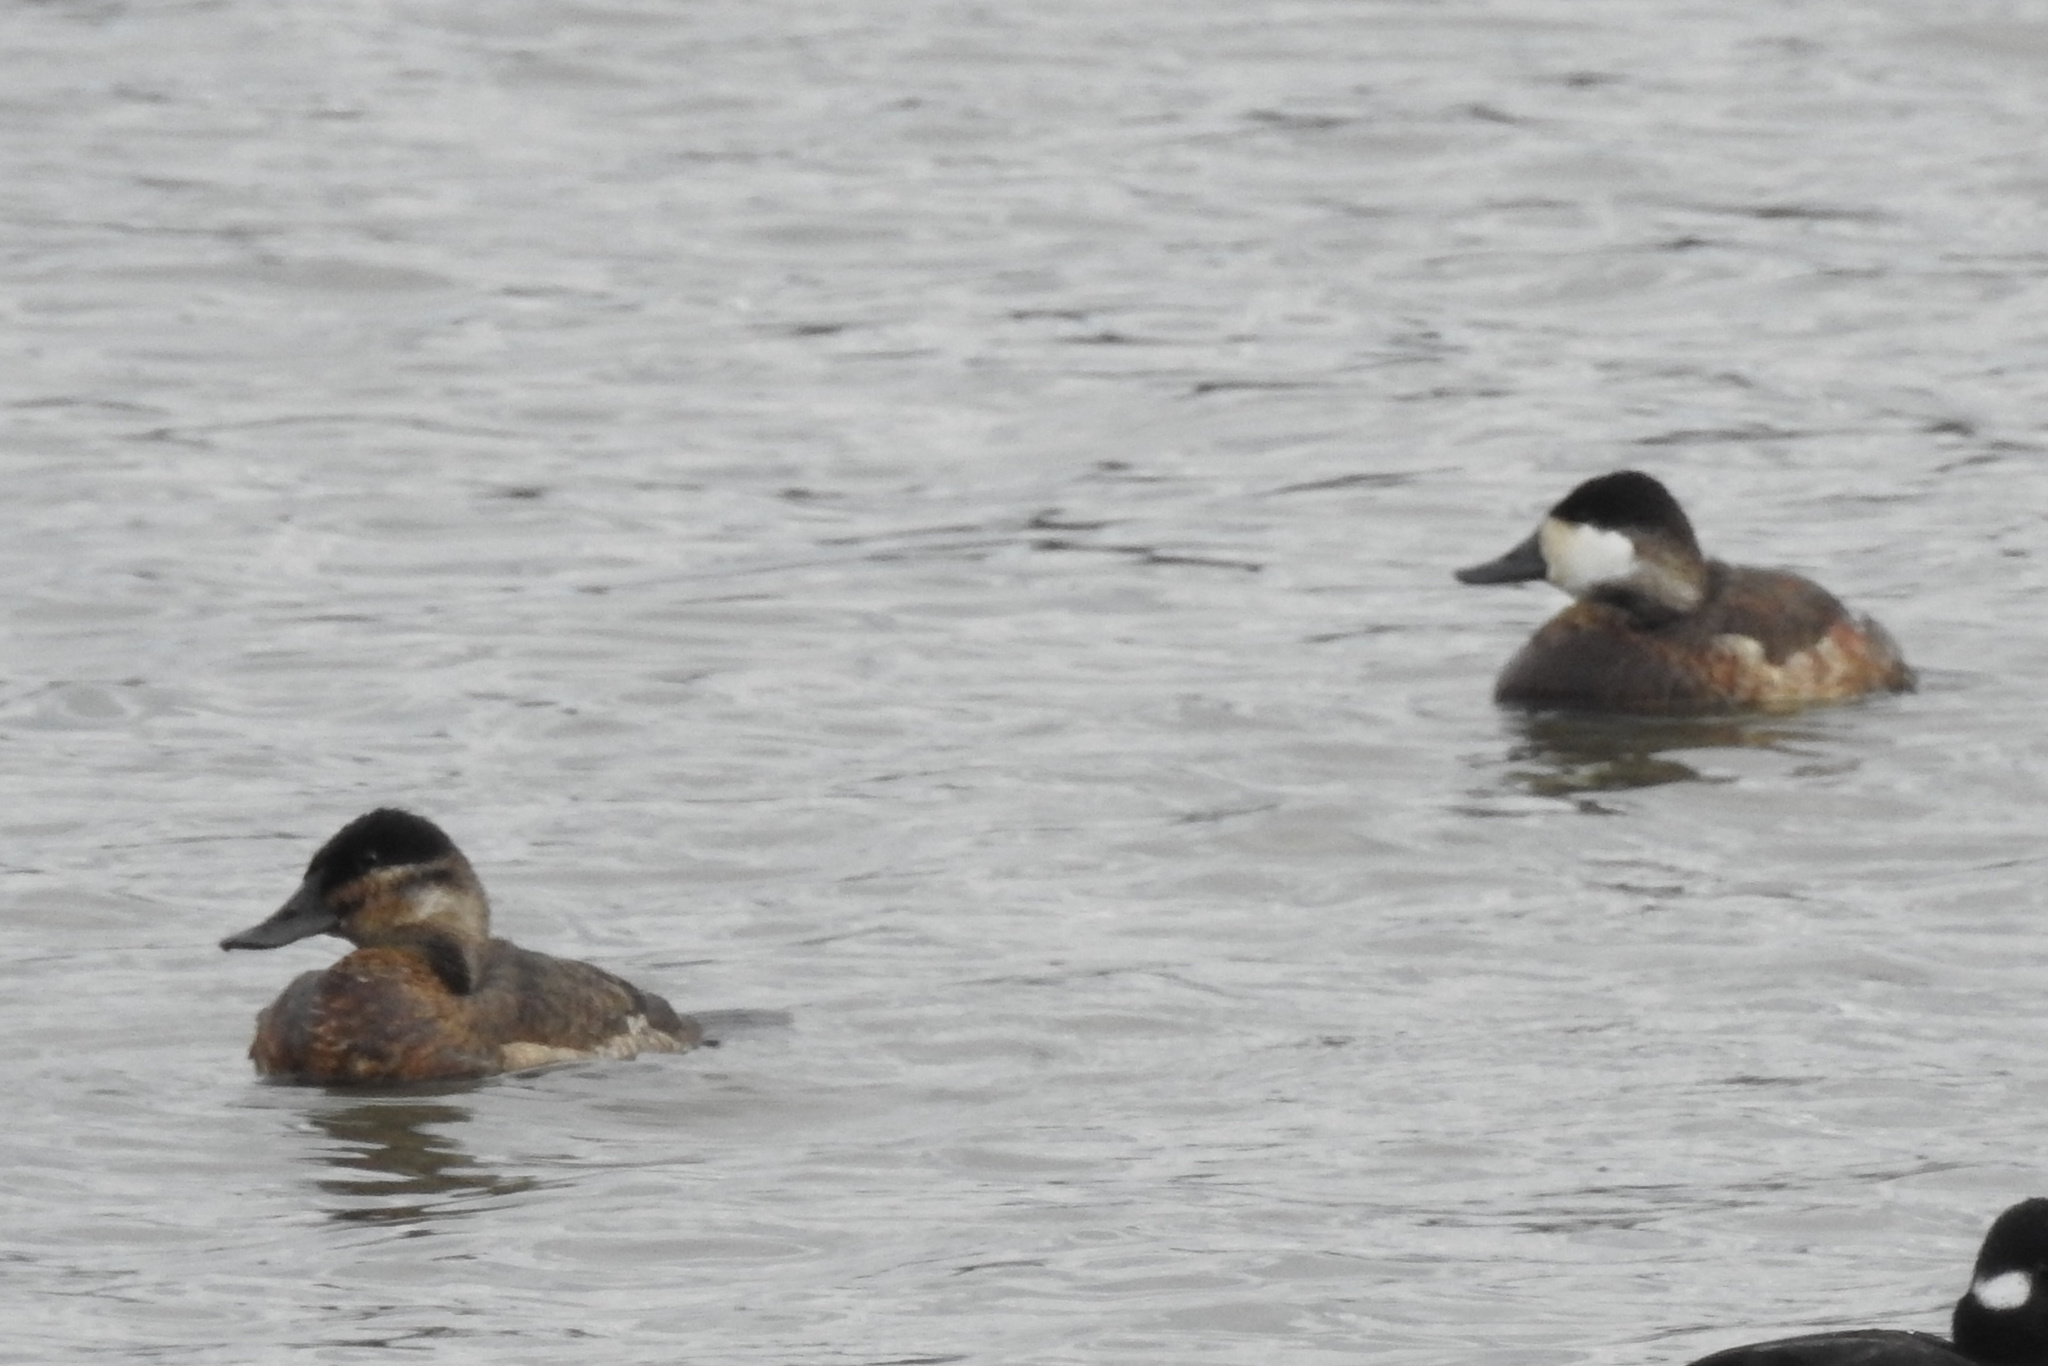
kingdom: Animalia
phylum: Chordata
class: Aves
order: Anseriformes
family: Anatidae
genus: Oxyura
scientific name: Oxyura jamaicensis
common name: Ruddy duck
